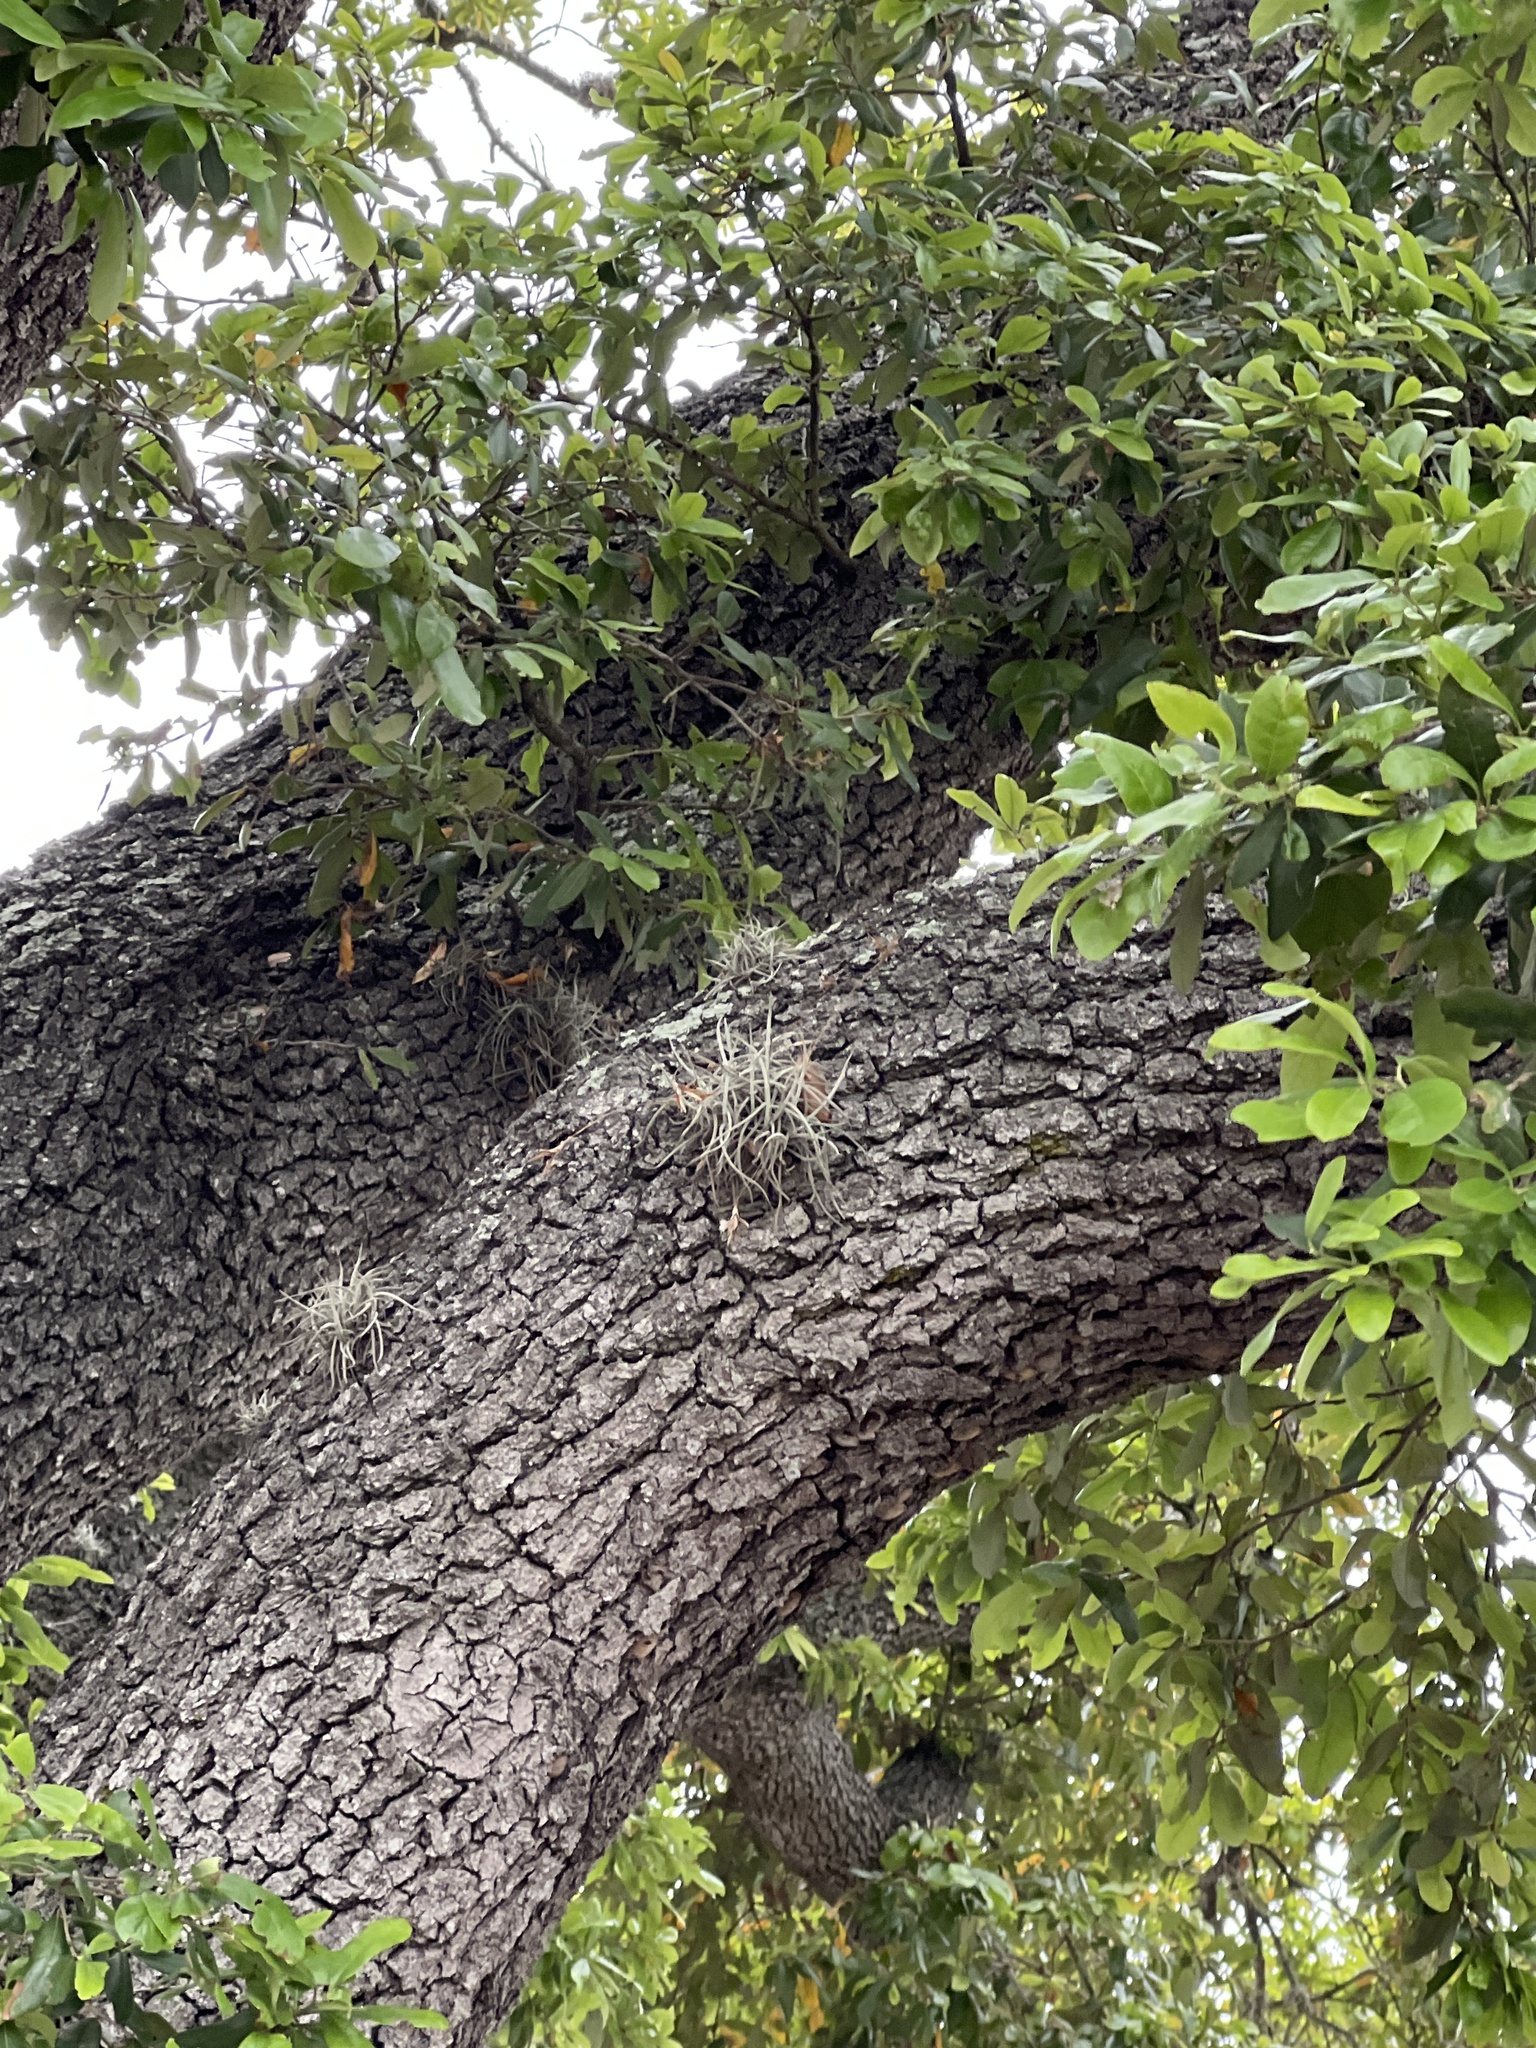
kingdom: Plantae
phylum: Tracheophyta
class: Liliopsida
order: Poales
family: Bromeliaceae
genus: Tillandsia
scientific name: Tillandsia recurvata
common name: Small ballmoss
